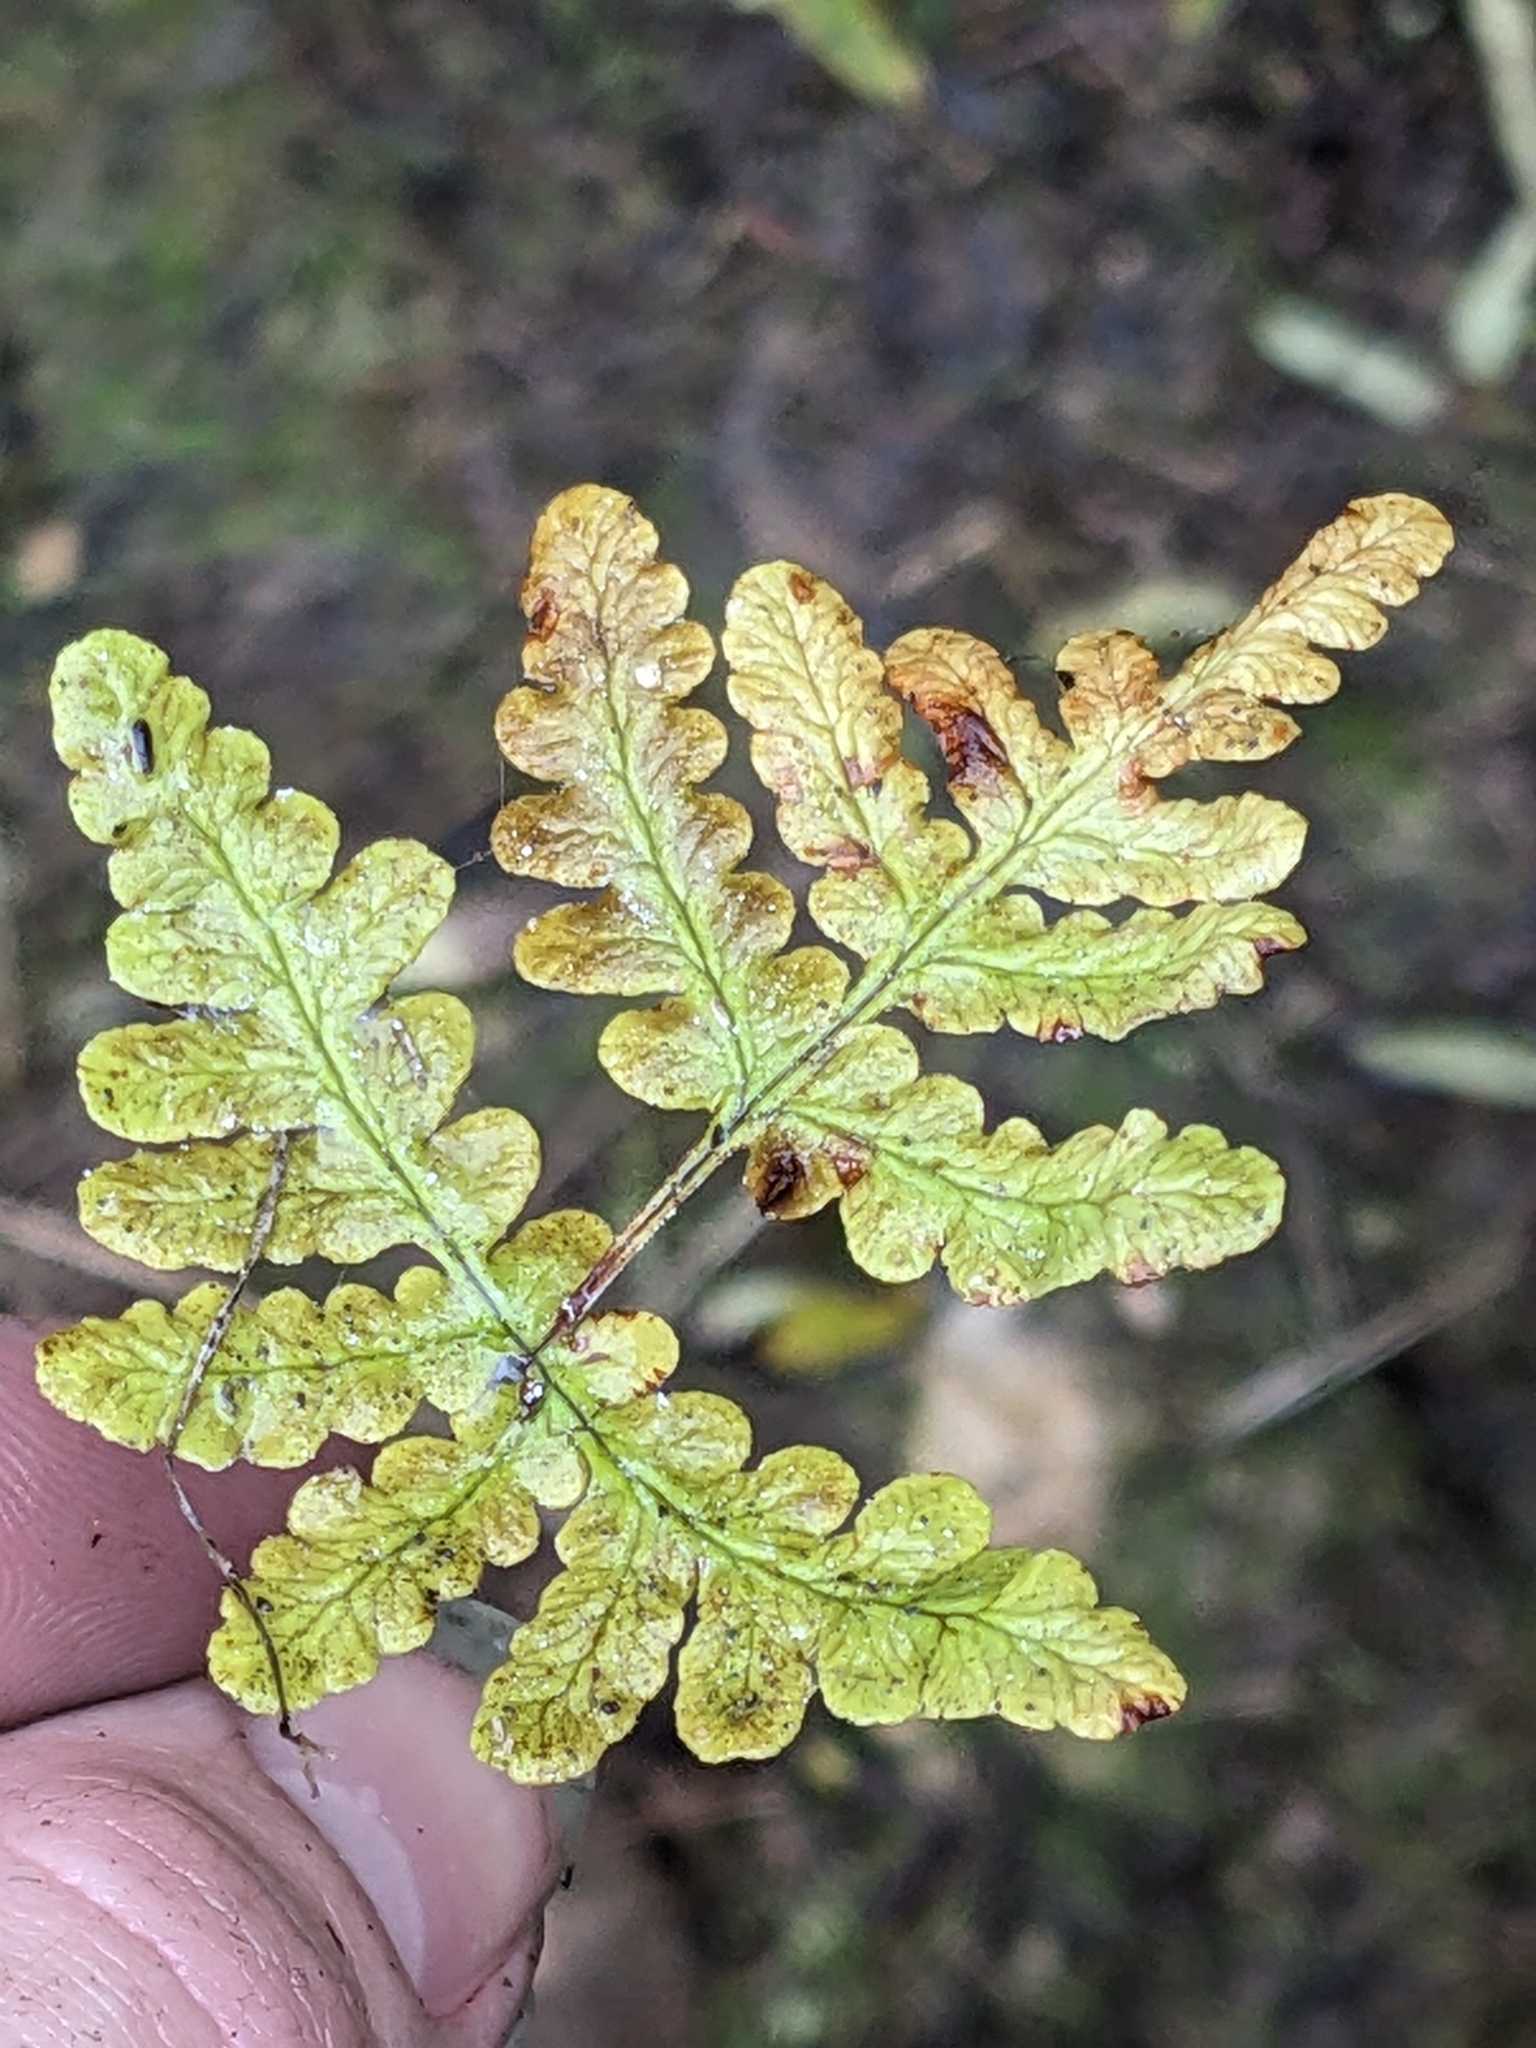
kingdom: Plantae
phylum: Tracheophyta
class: Polypodiopsida
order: Polypodiales
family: Pteridaceae
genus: Pentagramma
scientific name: Pentagramma glanduloviscida
